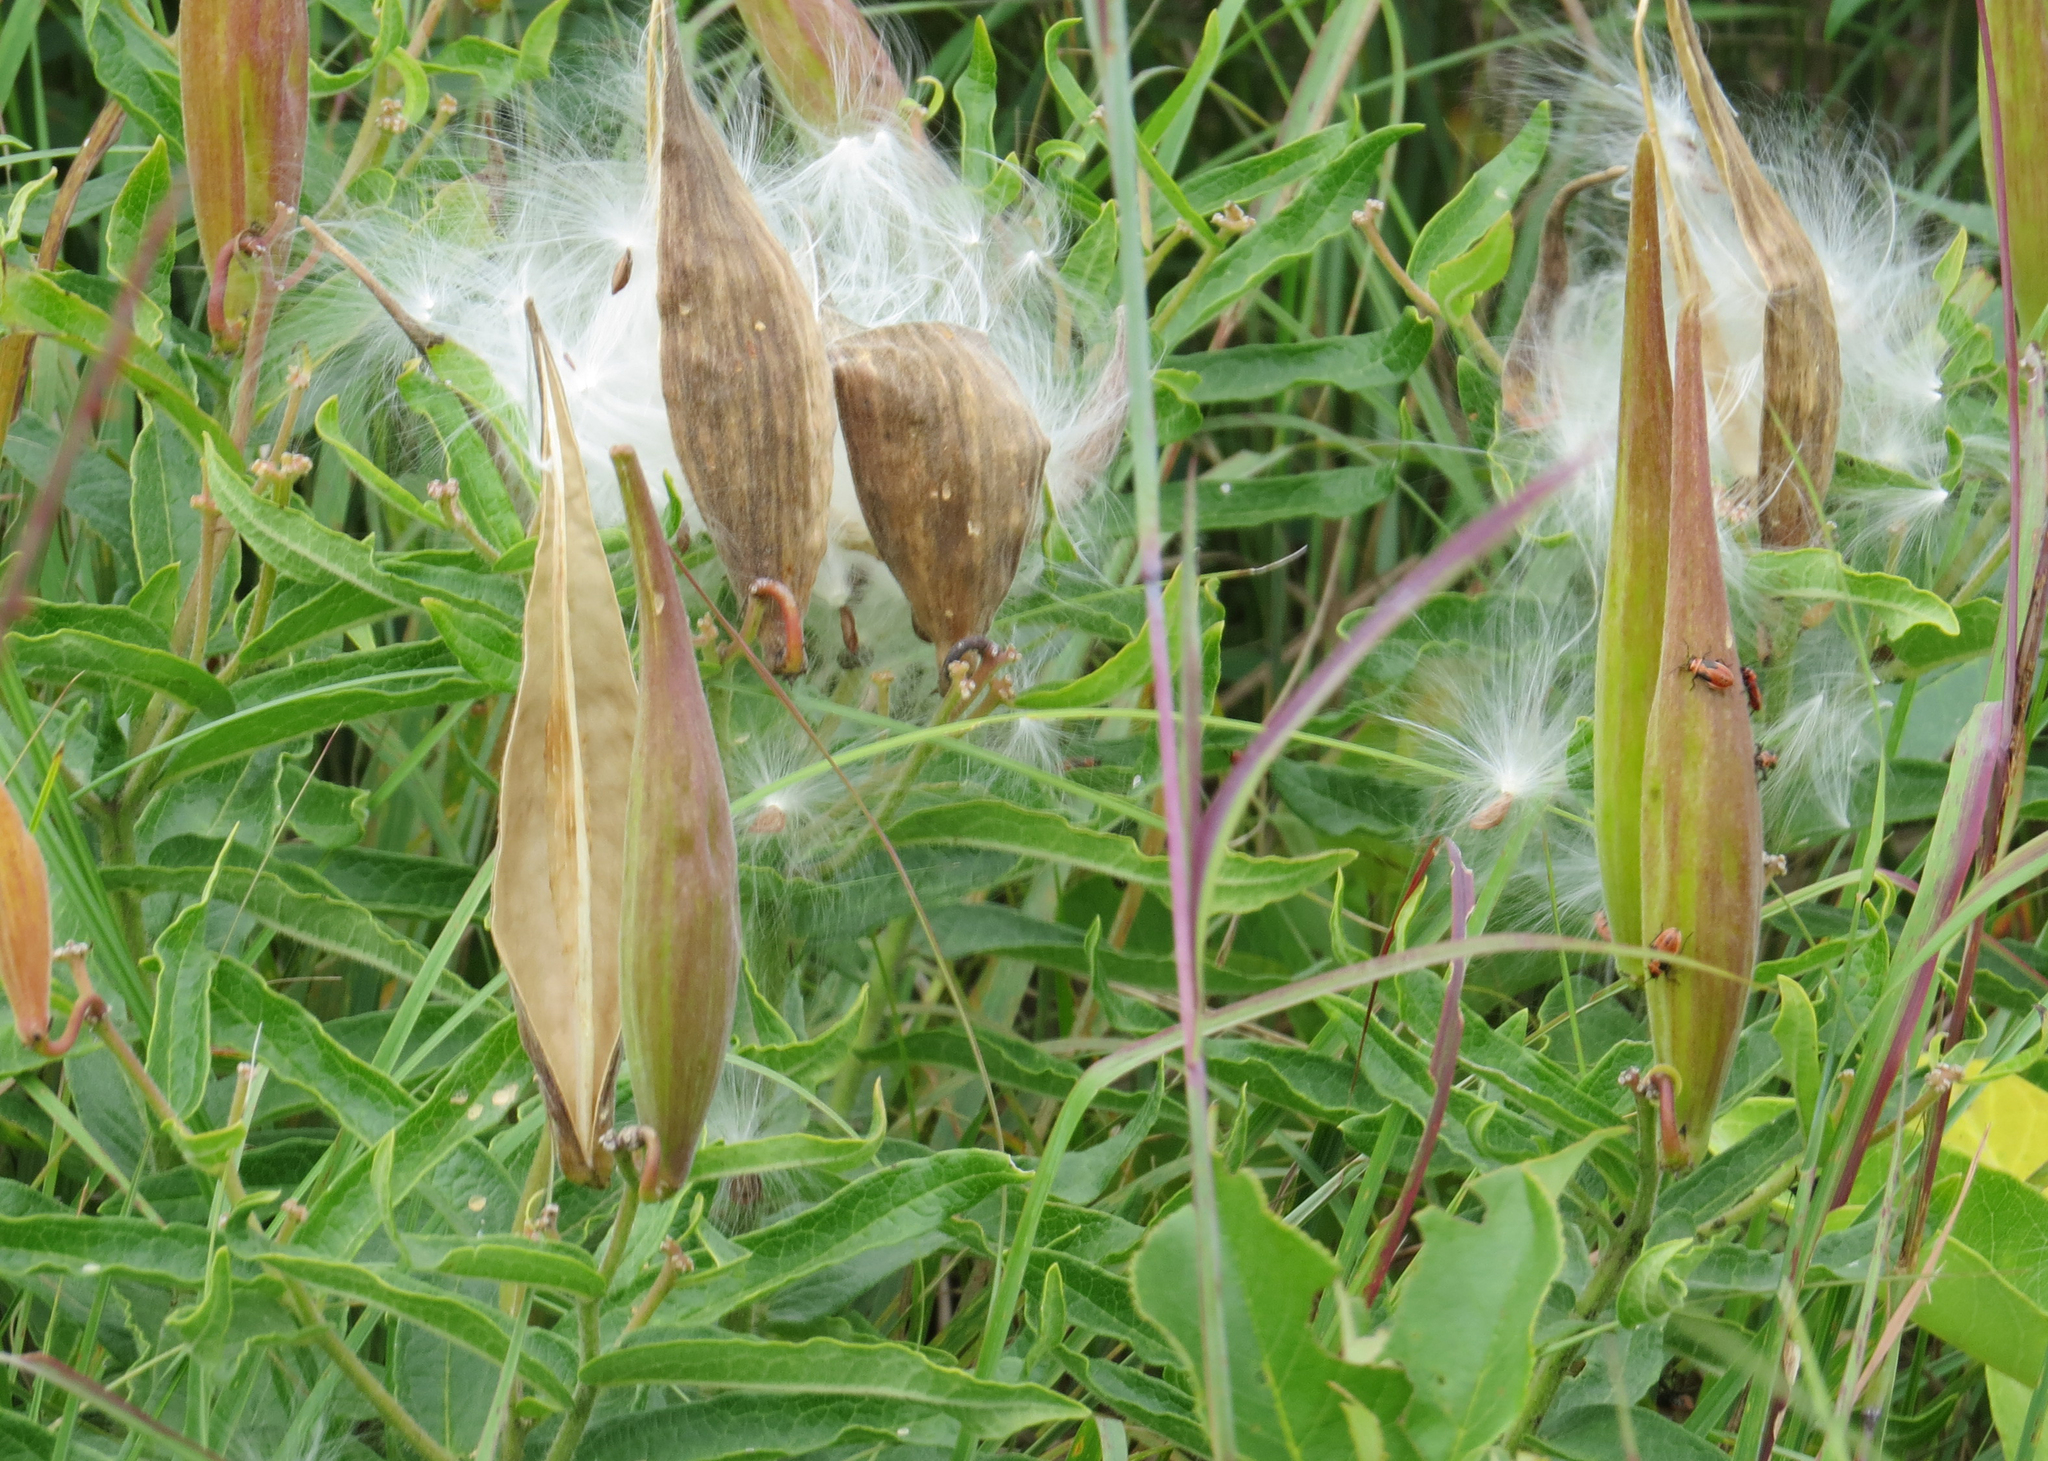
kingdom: Plantae
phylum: Tracheophyta
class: Magnoliopsida
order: Gentianales
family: Apocynaceae
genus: Asclepias
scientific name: Asclepias tuberosa
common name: Butterfly milkweed
